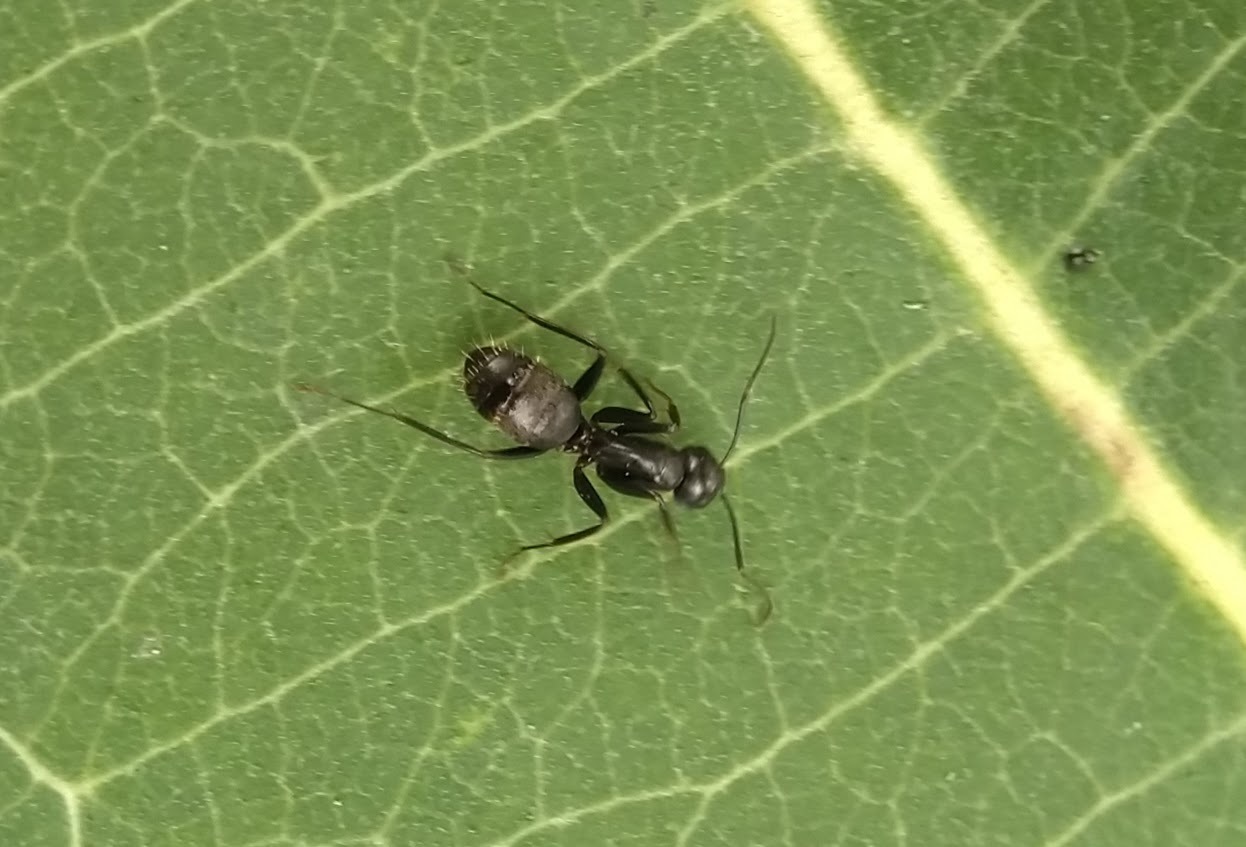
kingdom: Animalia
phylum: Arthropoda
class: Insecta
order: Hymenoptera
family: Formicidae
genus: Camponotus
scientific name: Camponotus pennsylvanicus
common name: Black carpenter ant
